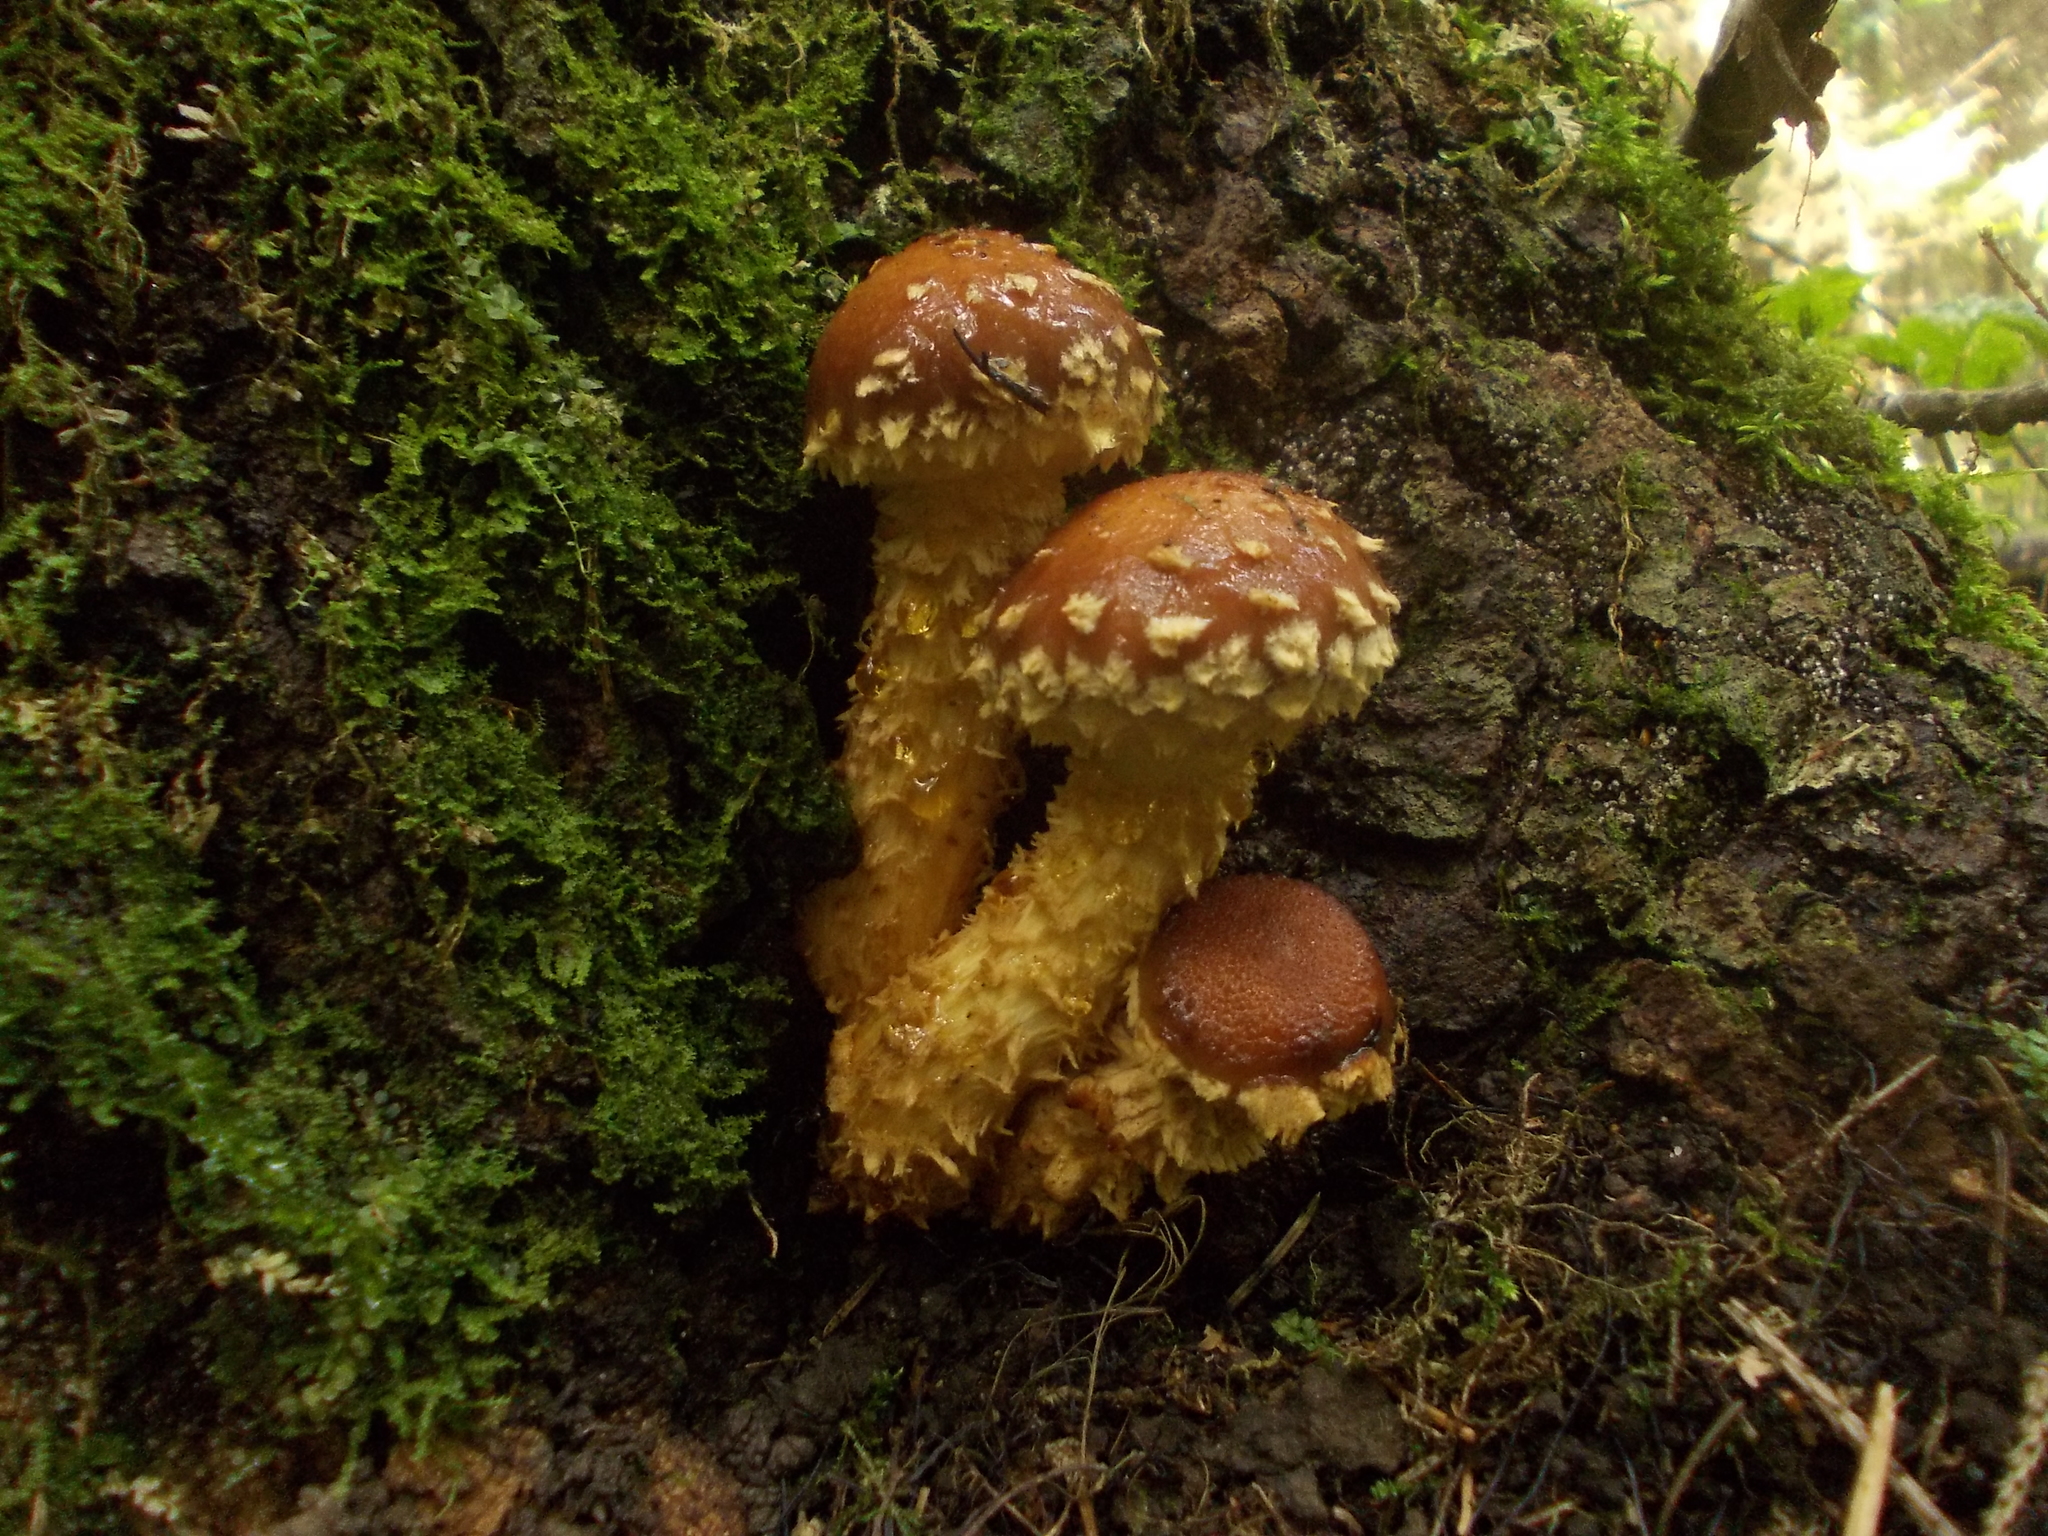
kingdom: Fungi
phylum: Basidiomycota
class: Agaricomycetes
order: Agaricales
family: Tubariaceae
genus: Hemistropharia
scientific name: Hemistropharia albocrenulata
